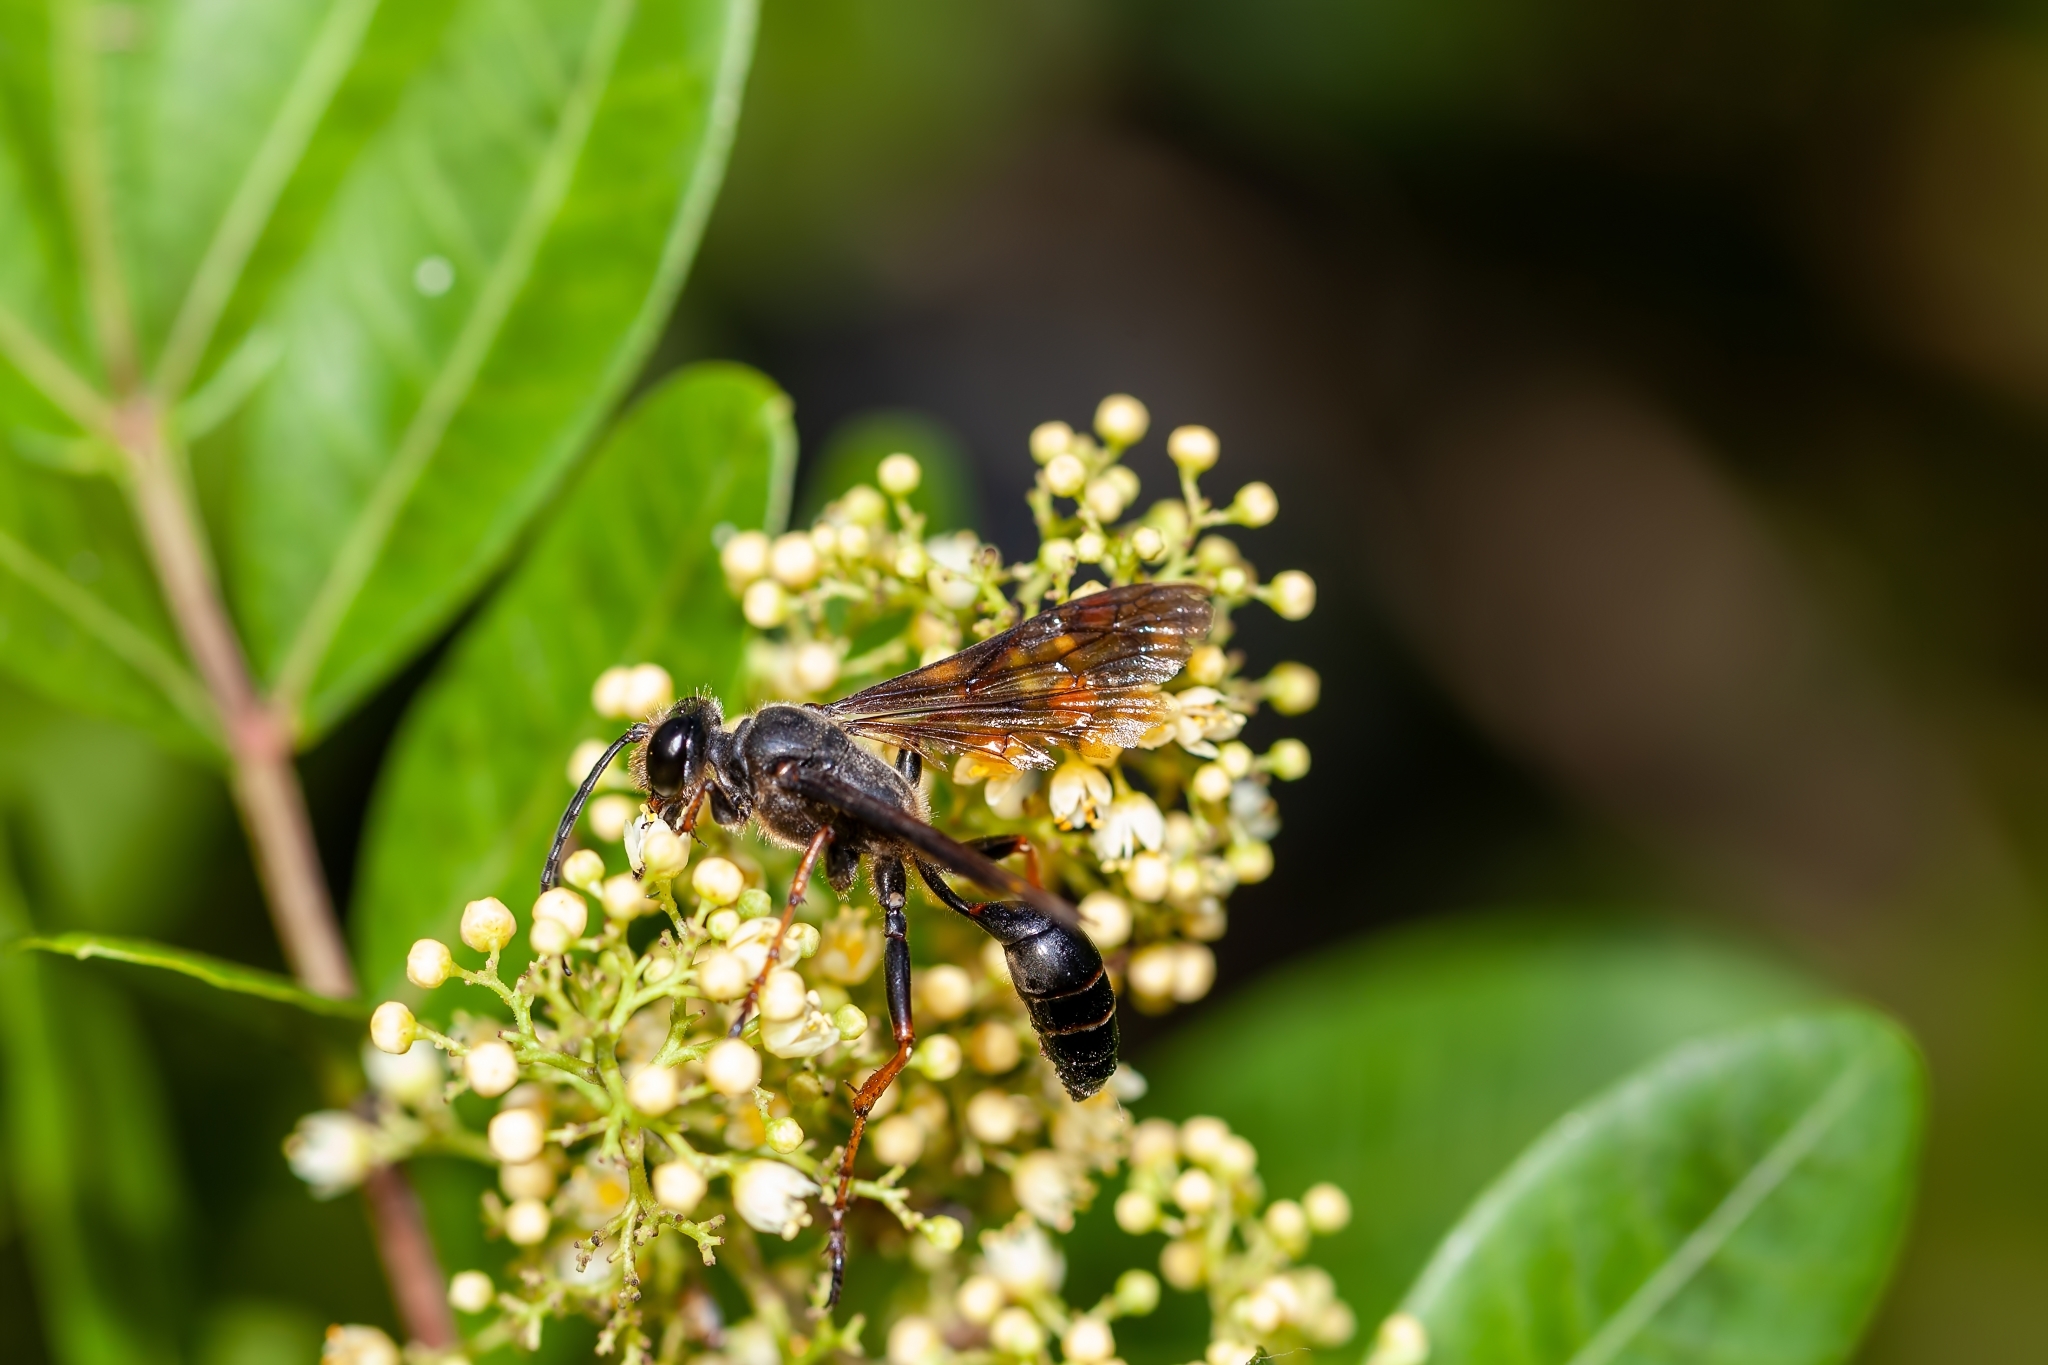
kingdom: Animalia
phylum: Arthropoda
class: Insecta
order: Hymenoptera
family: Sphecidae
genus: Isodontia
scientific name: Isodontia auripes
